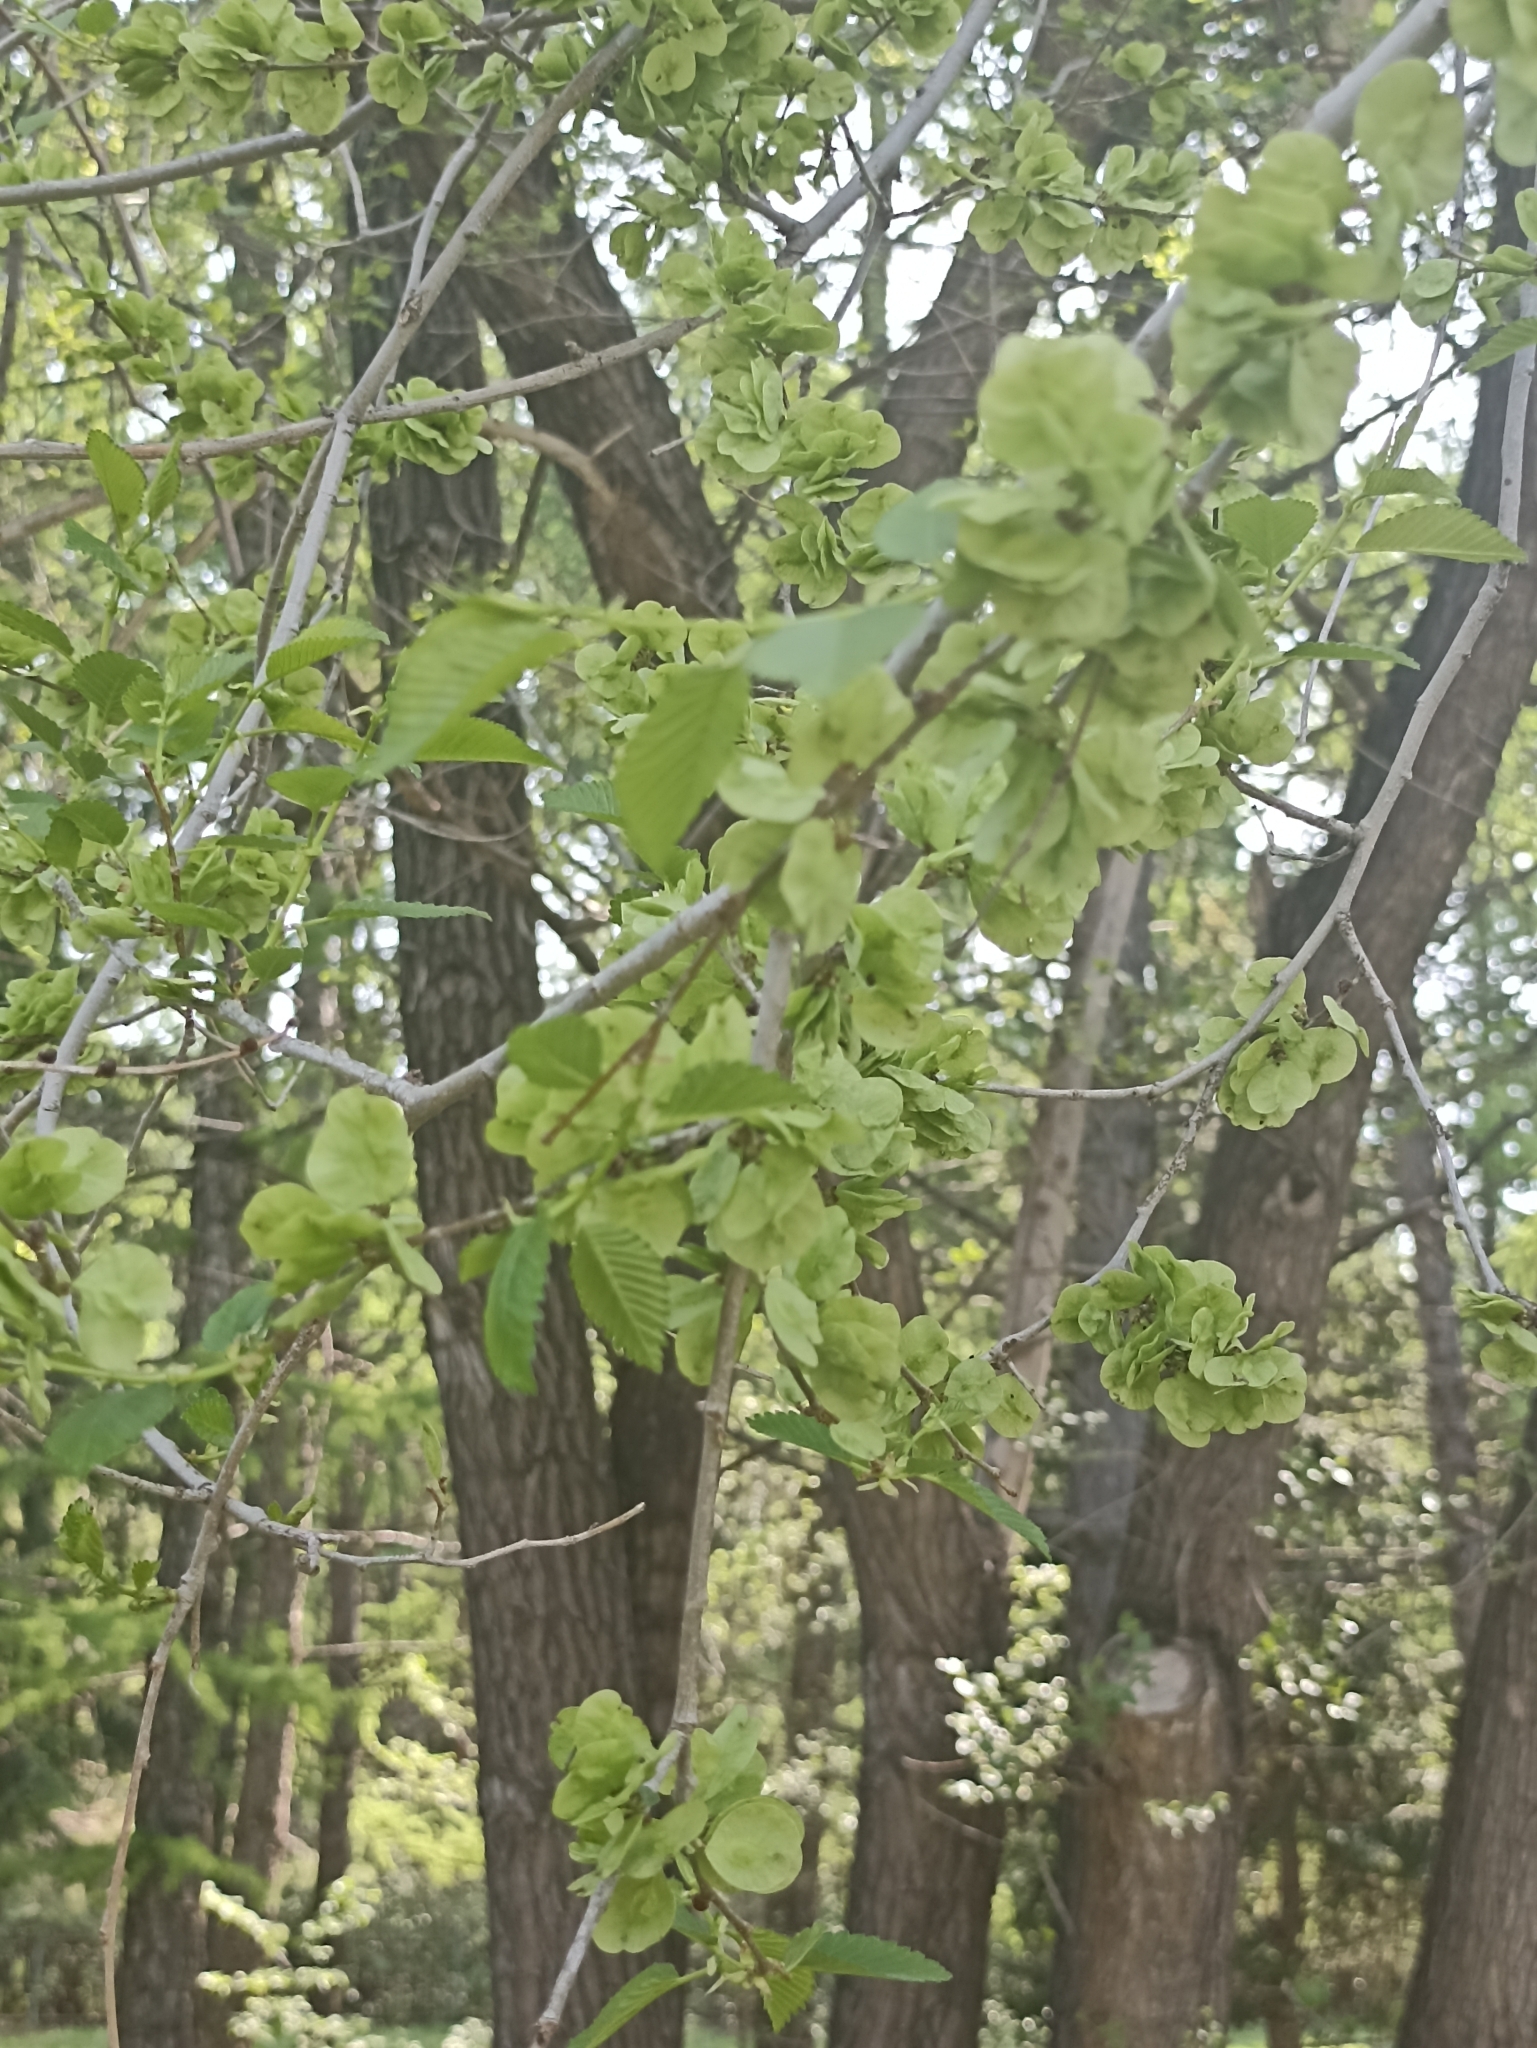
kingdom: Plantae
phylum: Tracheophyta
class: Magnoliopsida
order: Rosales
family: Ulmaceae
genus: Ulmus
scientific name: Ulmus pumila
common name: Siberian elm
